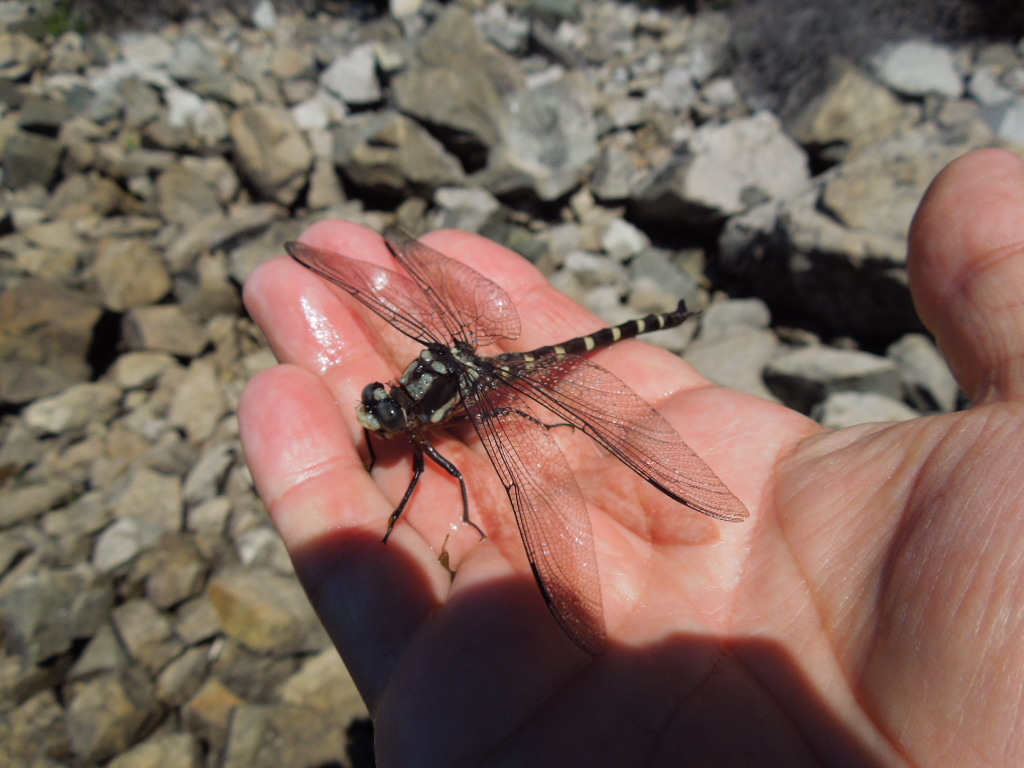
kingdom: Animalia
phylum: Arthropoda
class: Insecta
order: Odonata
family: Petaluridae
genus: Uropetala
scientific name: Uropetala chiltoni
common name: Mountain giant dragonfly
